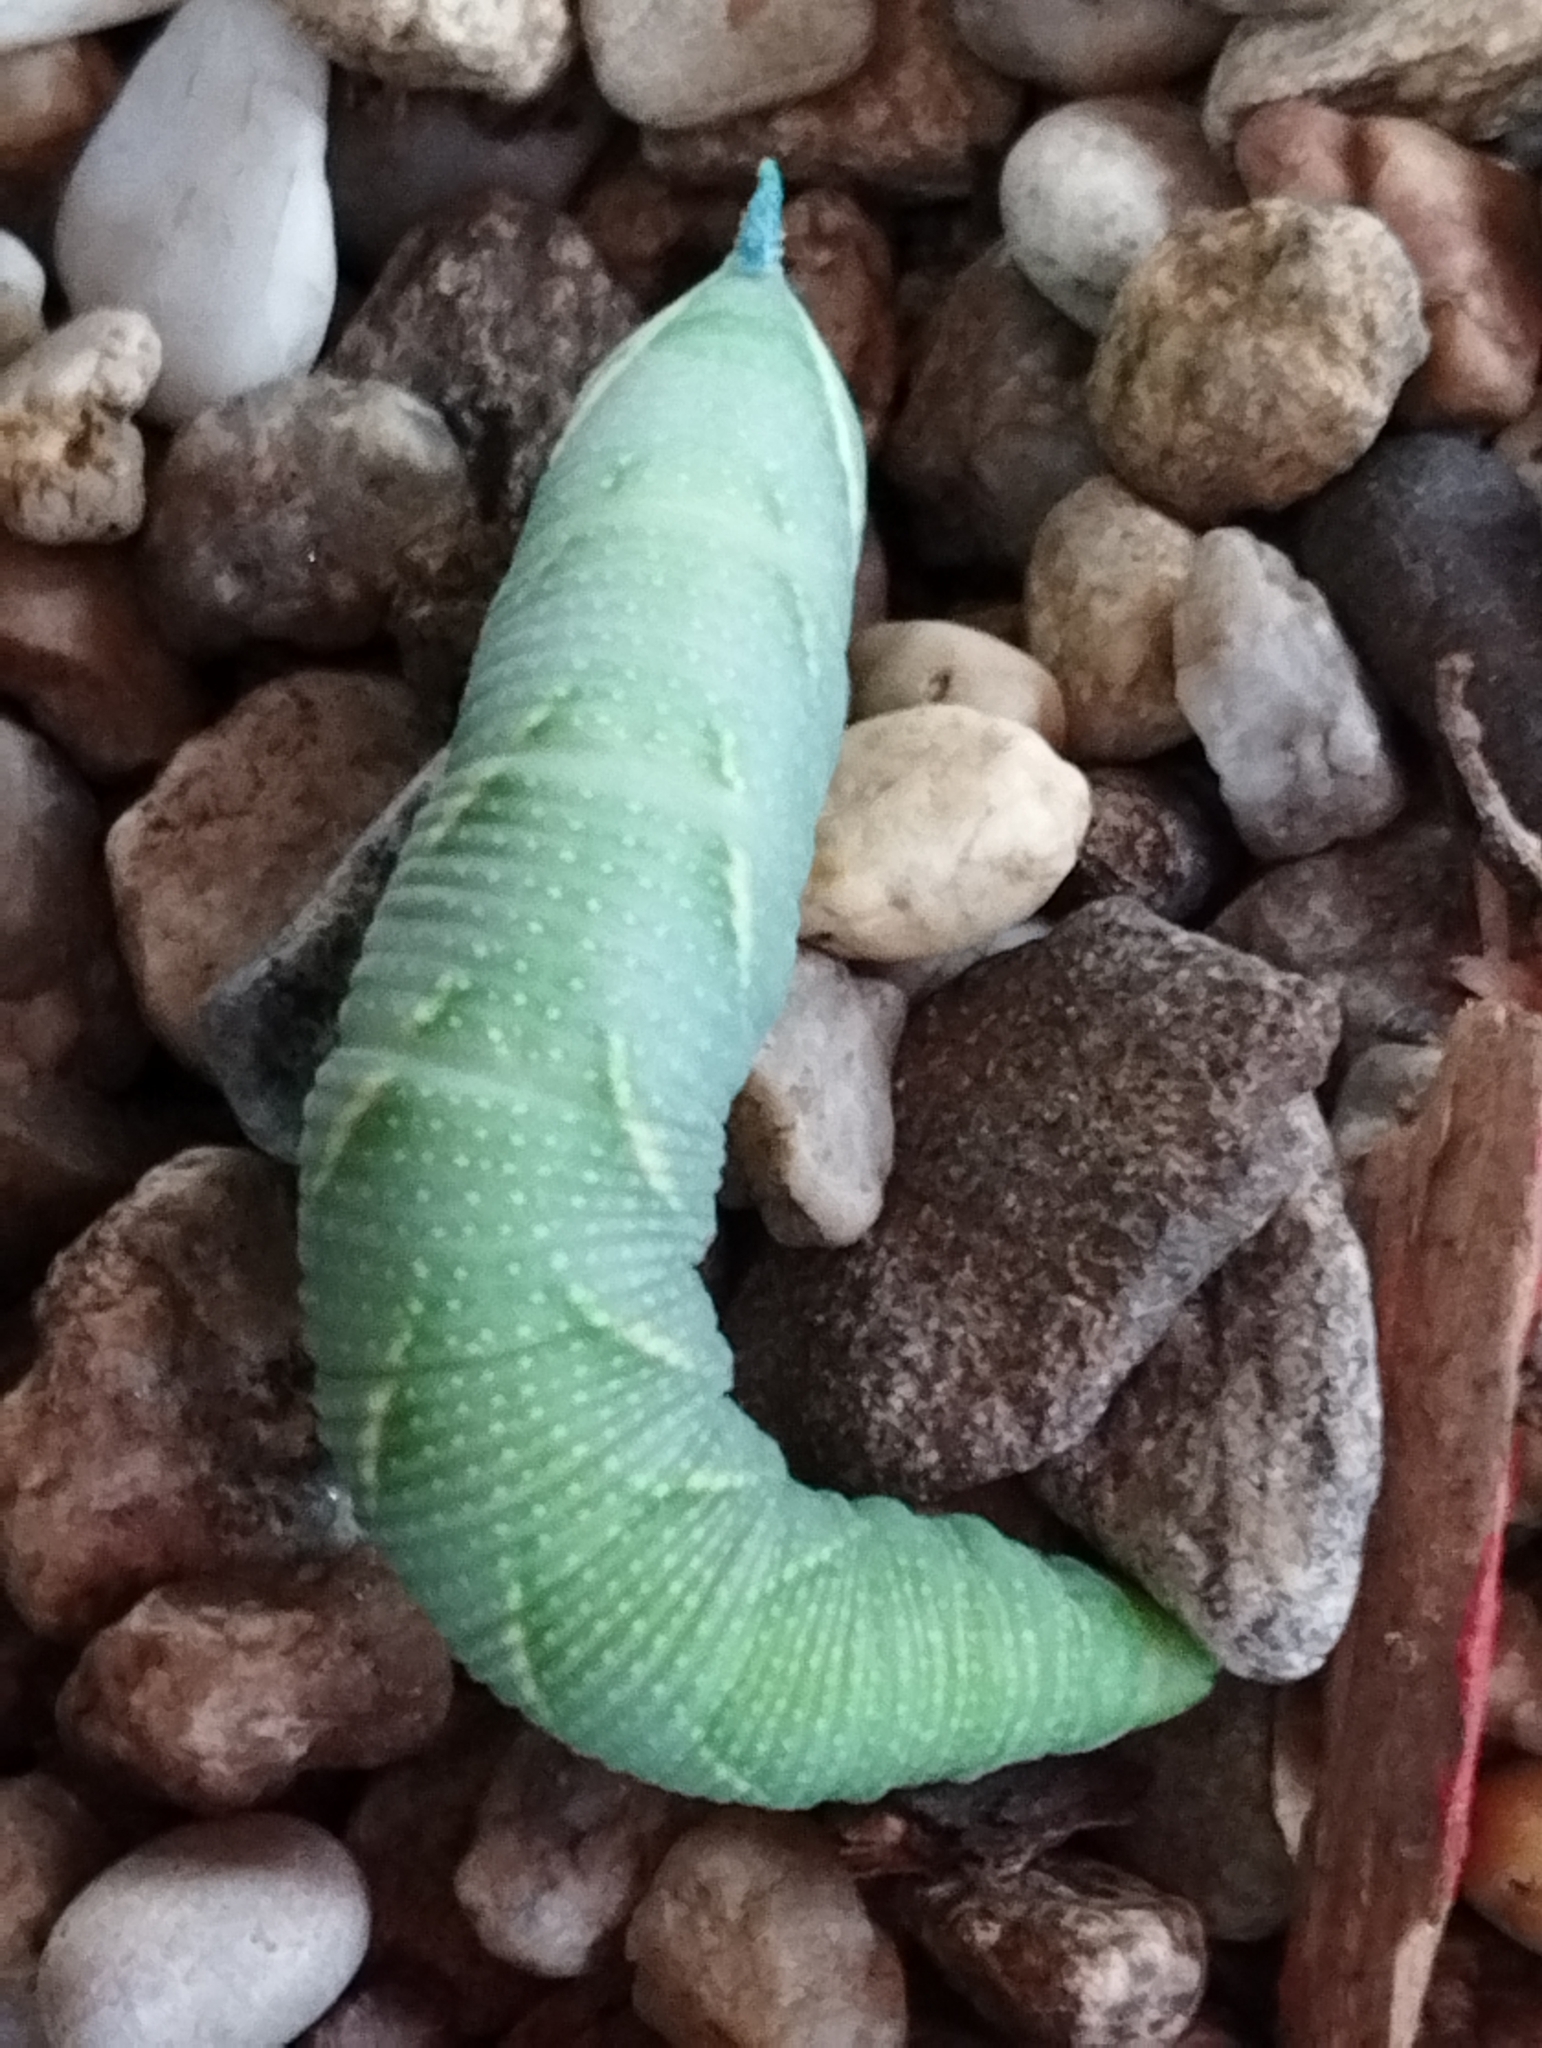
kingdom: Animalia
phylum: Arthropoda
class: Insecta
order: Lepidoptera
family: Sphingidae
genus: Mimas
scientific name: Mimas tiliae
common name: Lime hawk-moth
